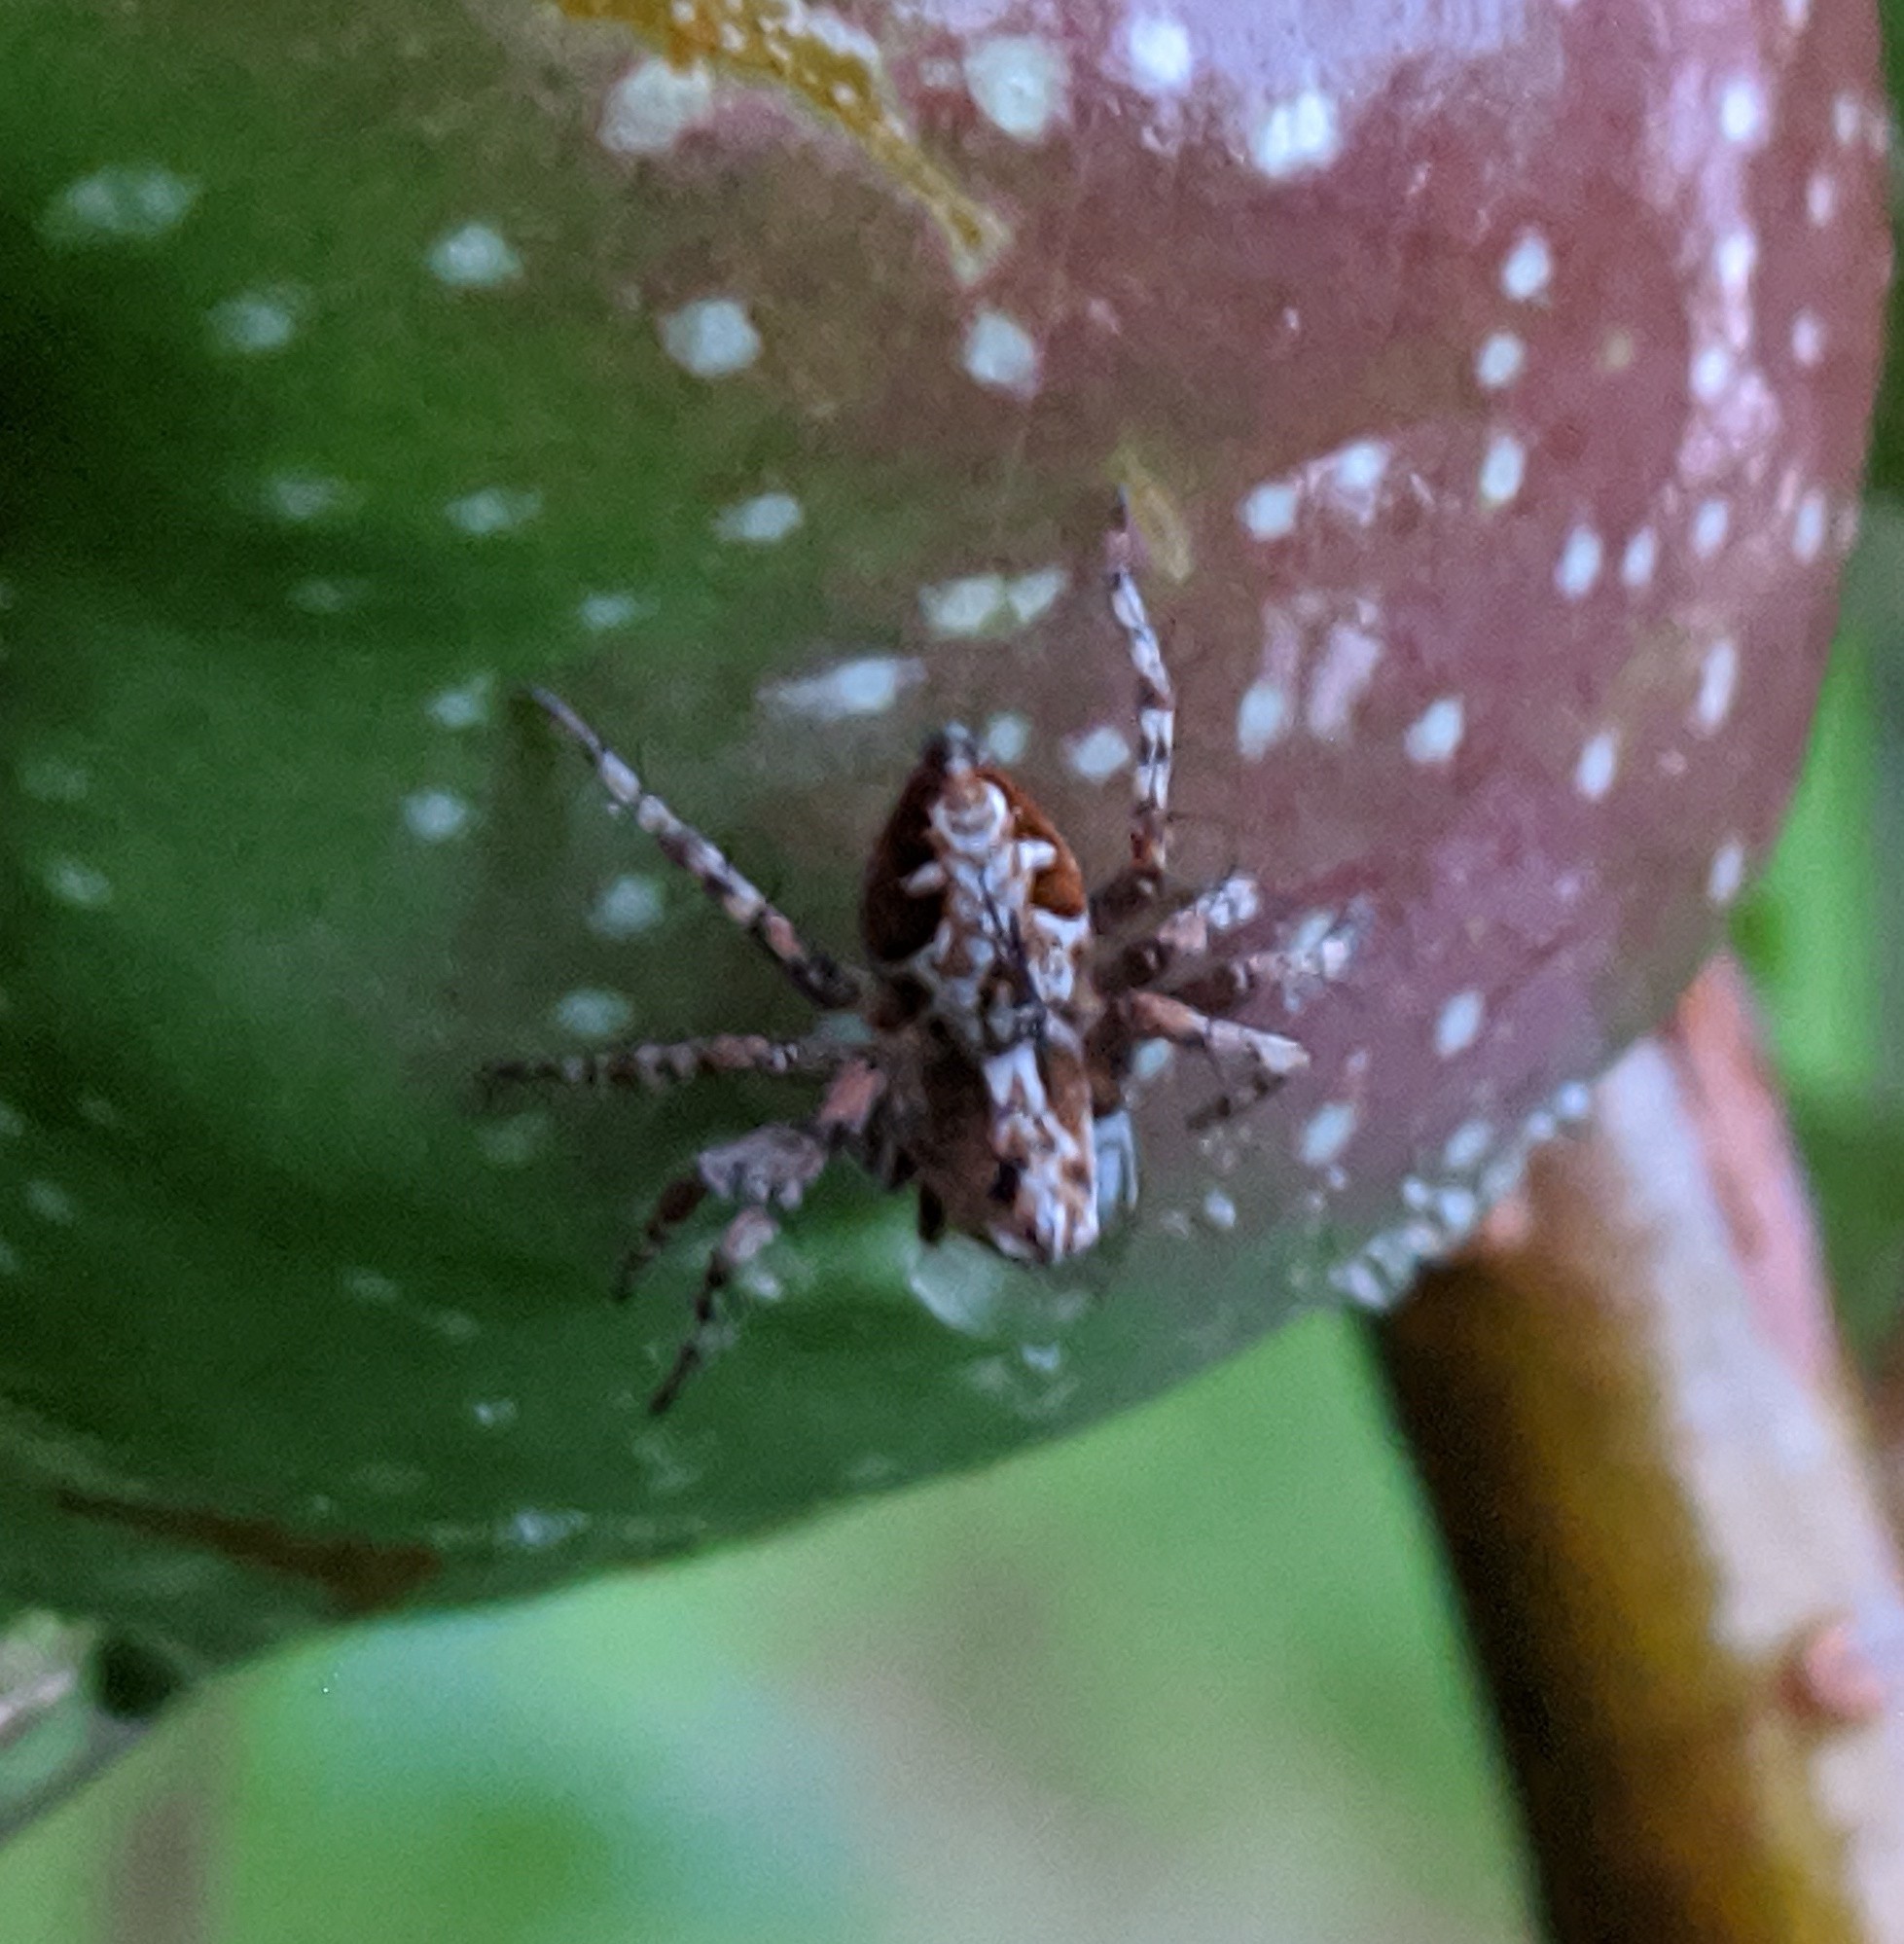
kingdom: Animalia
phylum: Arthropoda
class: Arachnida
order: Araneae
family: Oxyopidae
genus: Oxyopes
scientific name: Oxyopes ramosus
